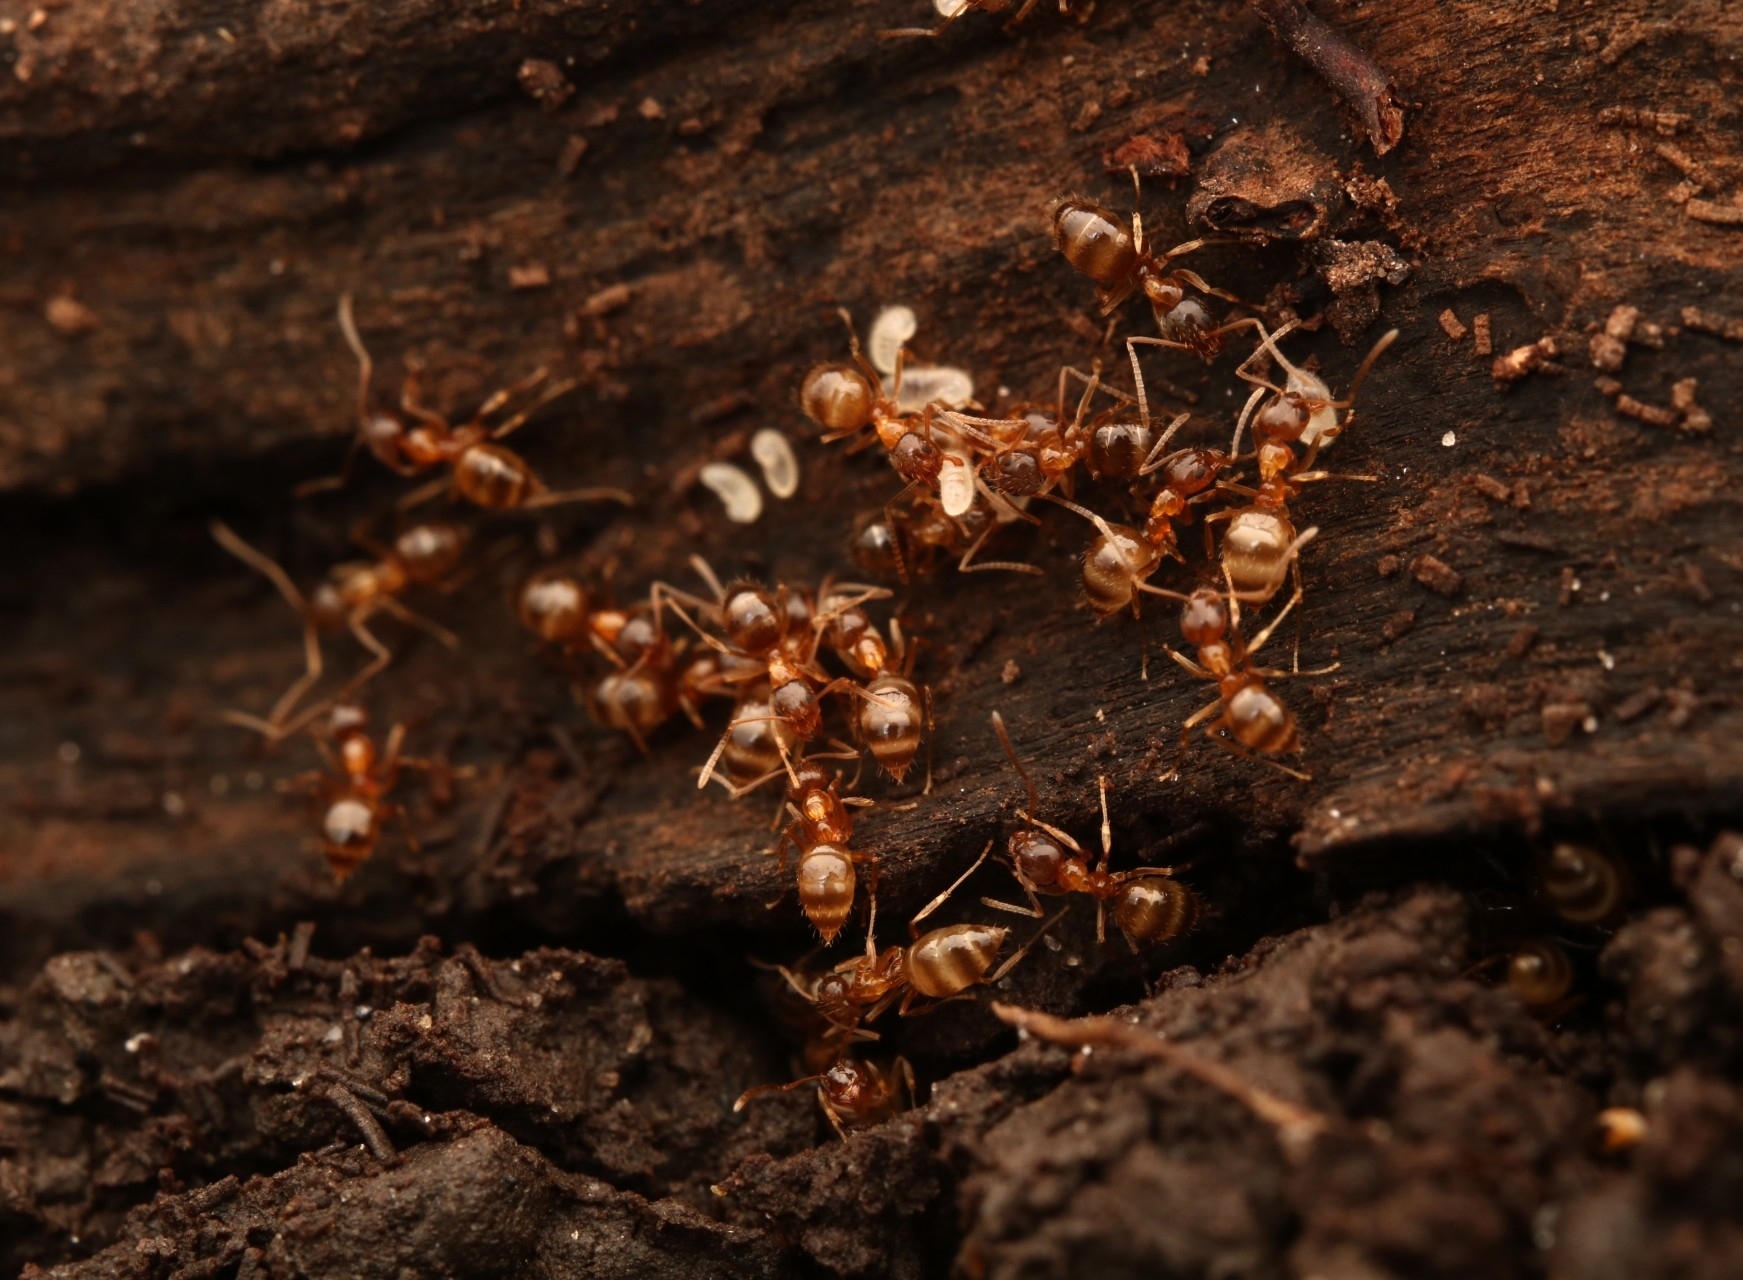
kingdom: Animalia
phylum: Arthropoda
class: Insecta
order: Hymenoptera
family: Formicidae
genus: Paratrechina
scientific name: Paratrechina flavipes
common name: Eastern asian formicine ant
